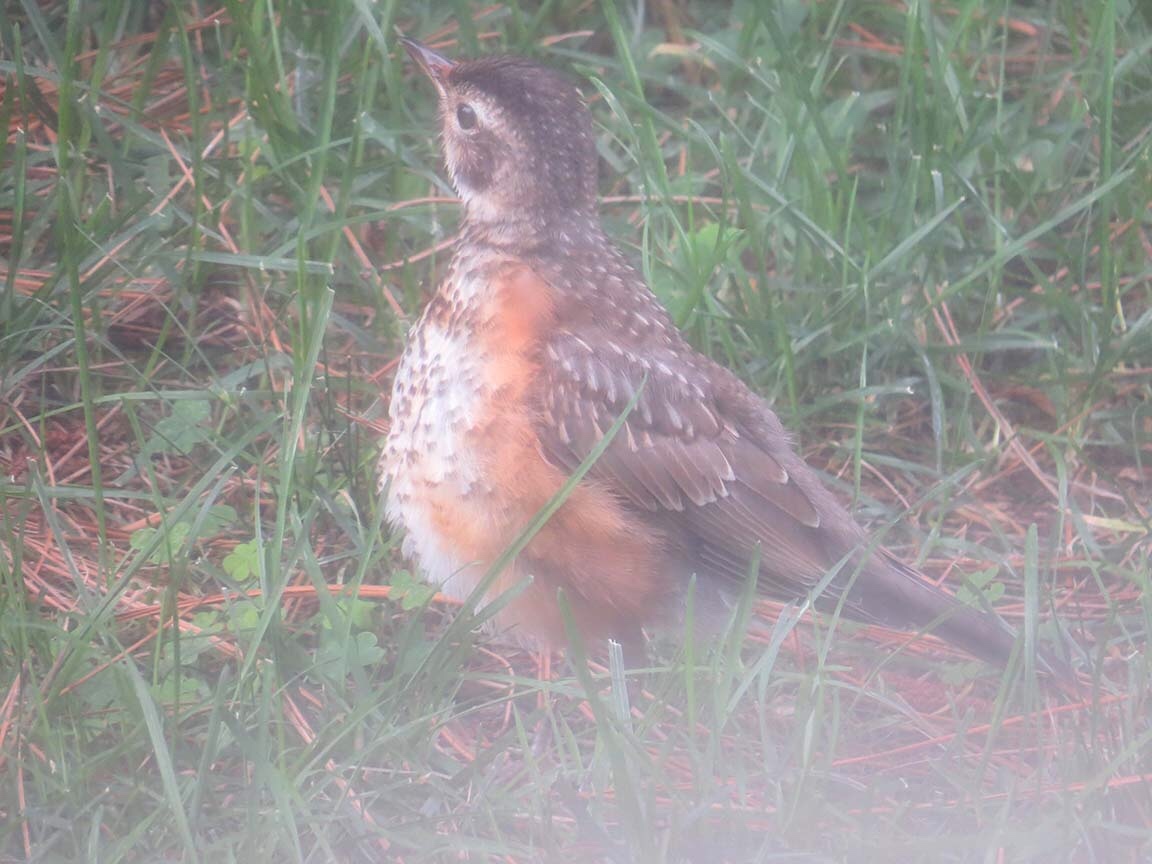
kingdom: Animalia
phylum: Chordata
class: Aves
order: Passeriformes
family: Turdidae
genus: Turdus
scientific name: Turdus migratorius
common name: American robin
